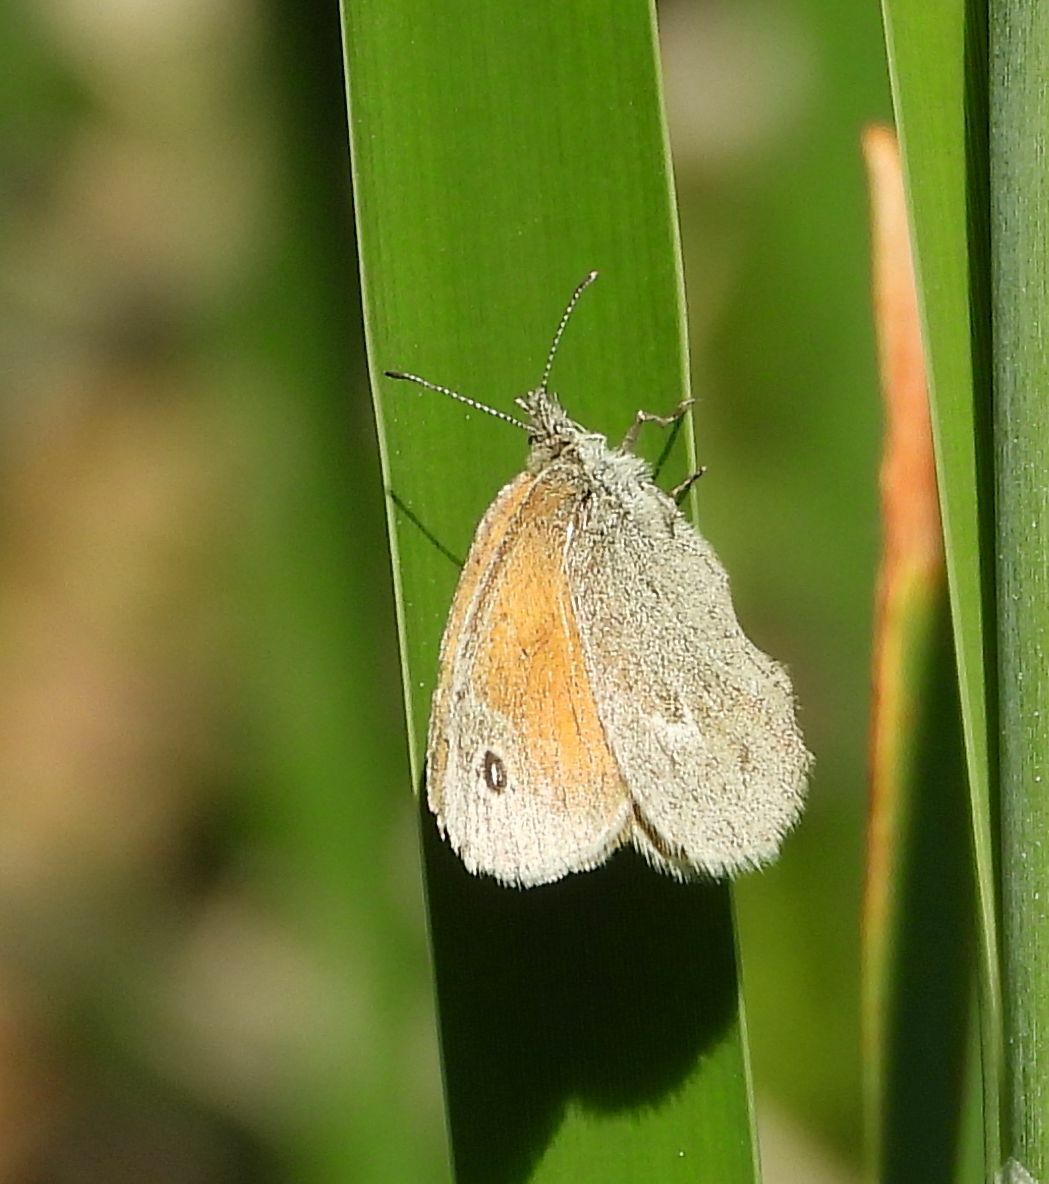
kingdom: Animalia
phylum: Arthropoda
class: Insecta
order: Lepidoptera
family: Nymphalidae
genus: Coenonympha
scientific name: Coenonympha california
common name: Common ringlet
